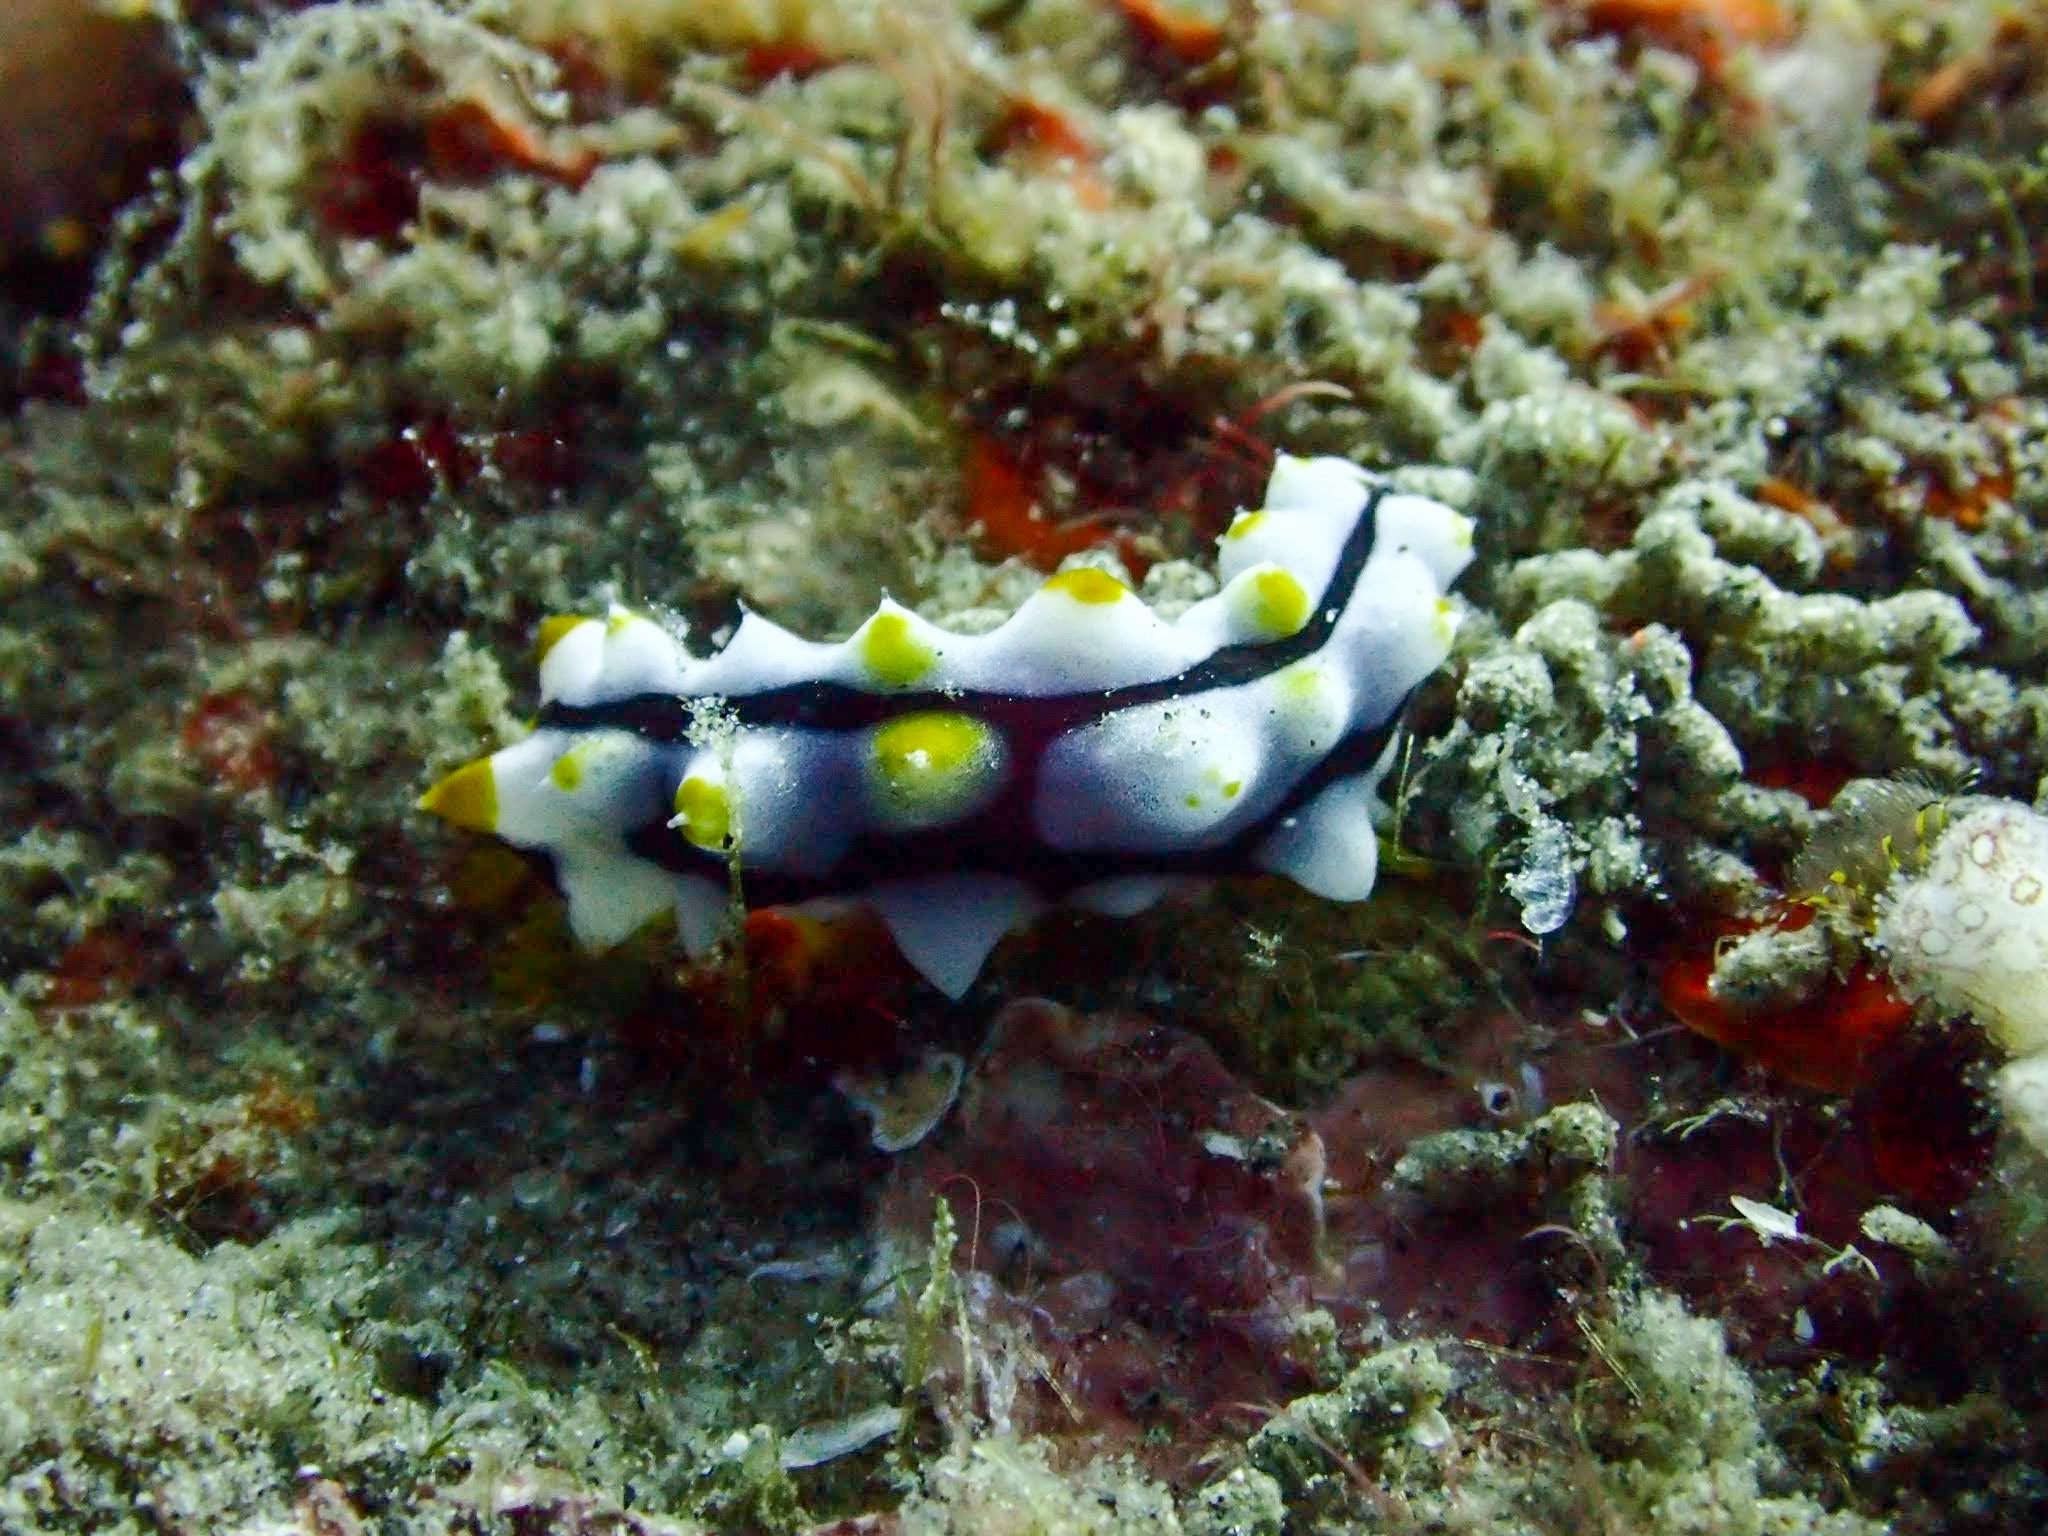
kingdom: Animalia
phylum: Echinodermata
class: Holothuroidea
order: Holothuriida
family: Holothuriidae
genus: Pearsonothuria
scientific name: Pearsonothuria graeffei
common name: Blackspotted sea cucumber
